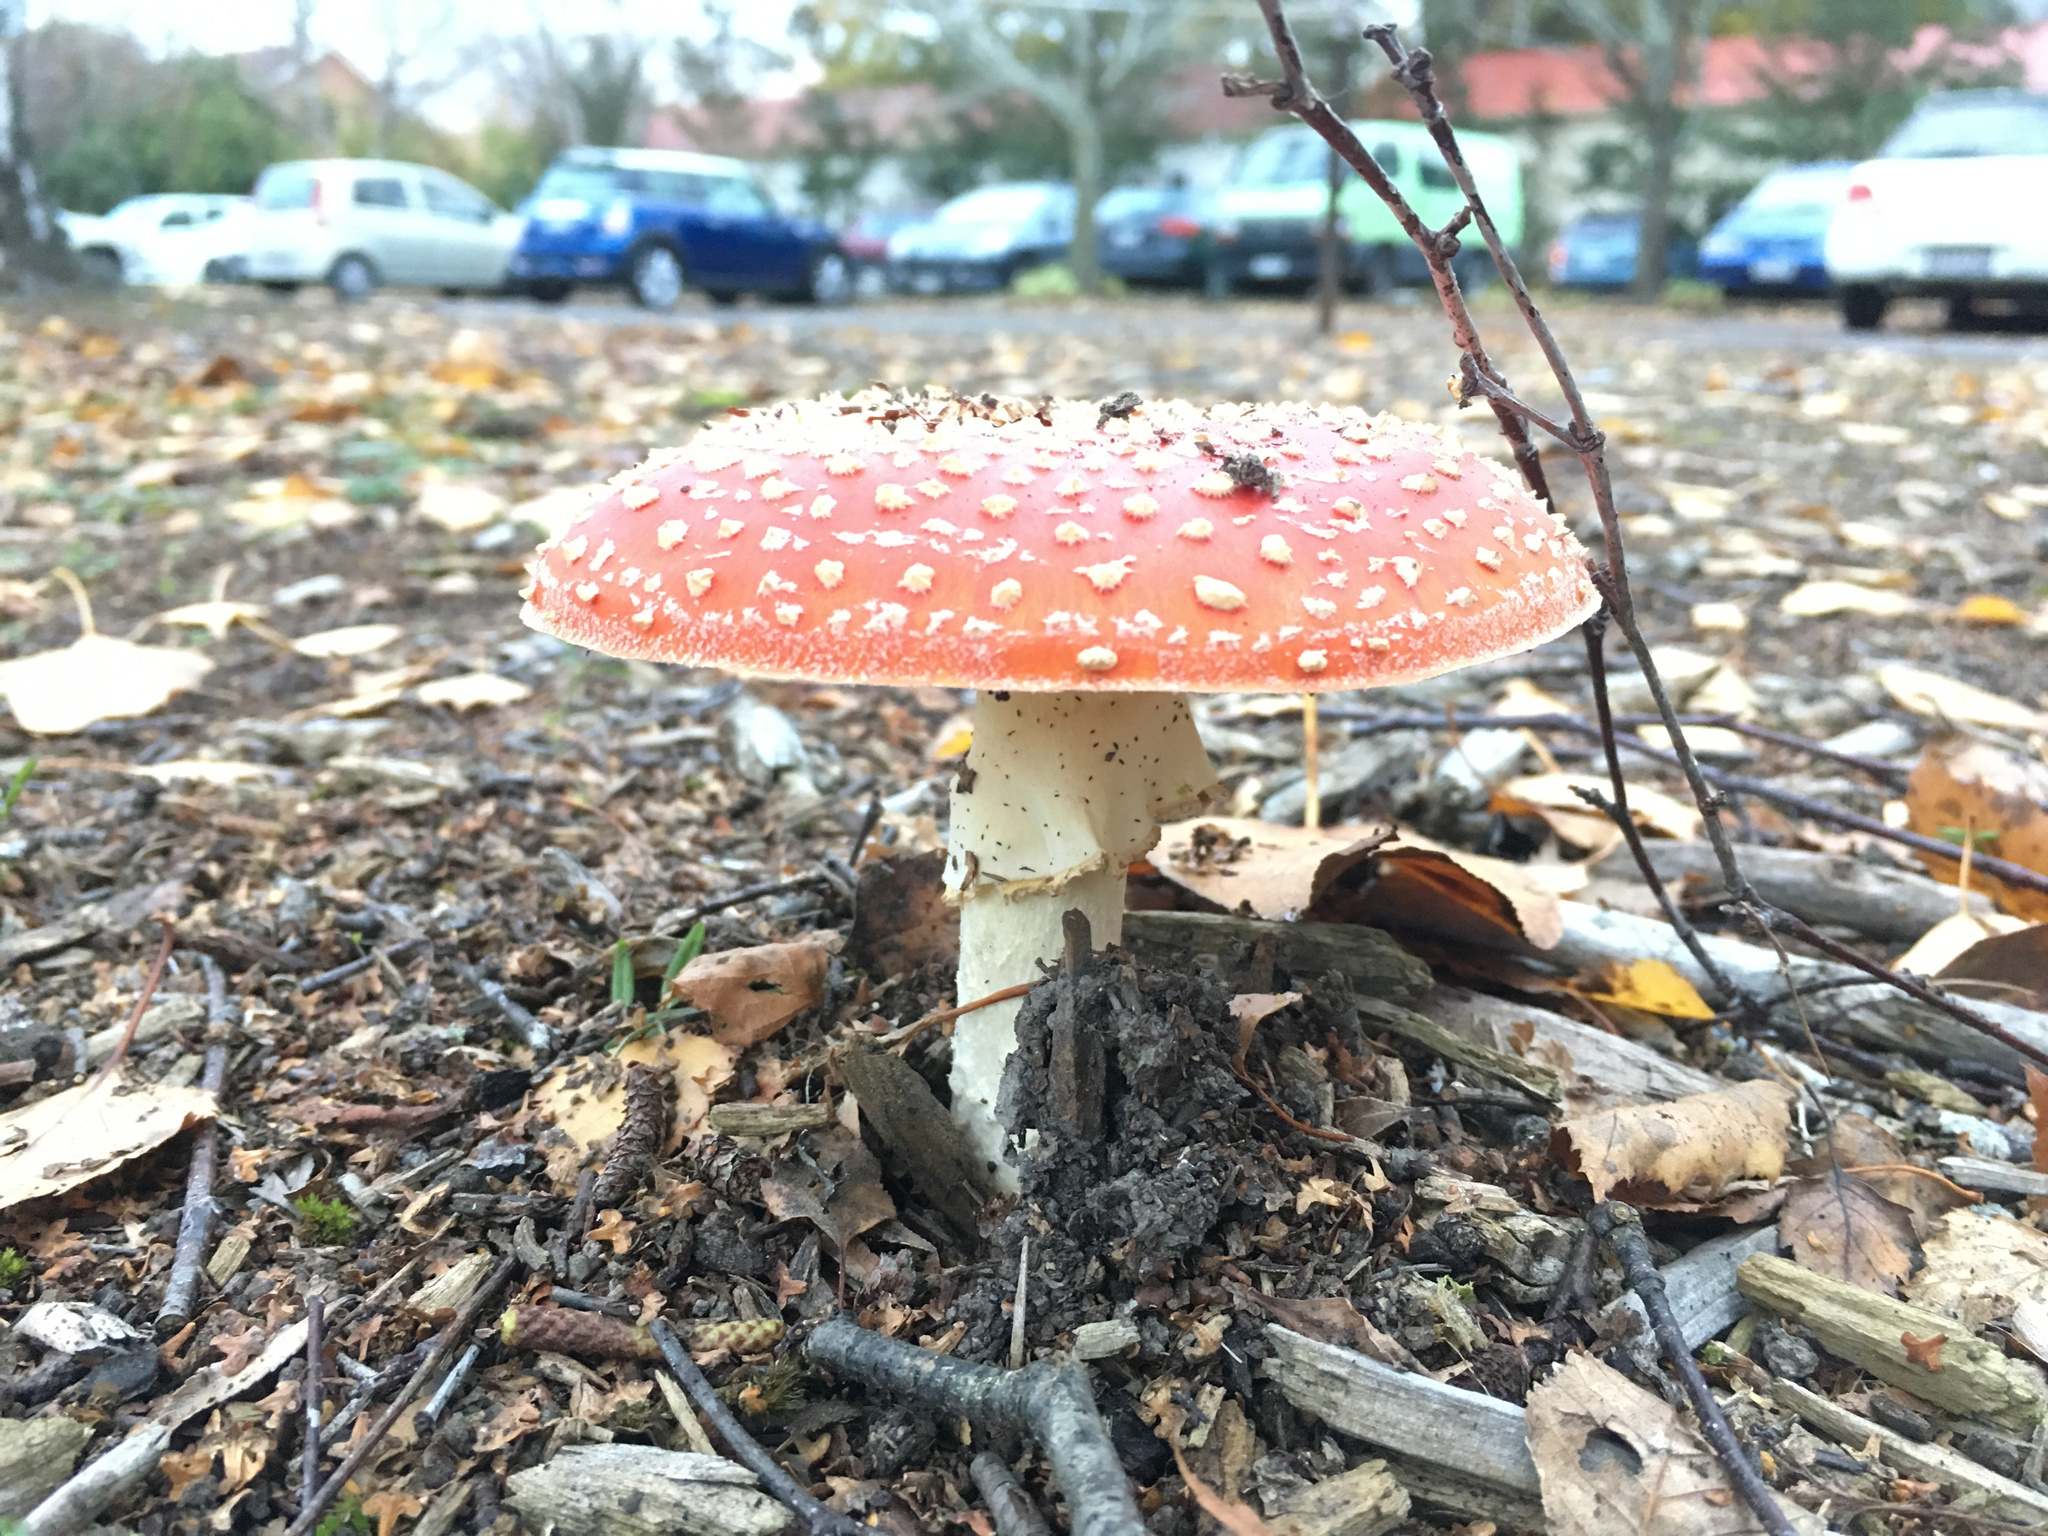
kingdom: Fungi
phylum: Basidiomycota
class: Agaricomycetes
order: Agaricales
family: Amanitaceae
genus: Amanita
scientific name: Amanita muscaria
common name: Fly agaric
